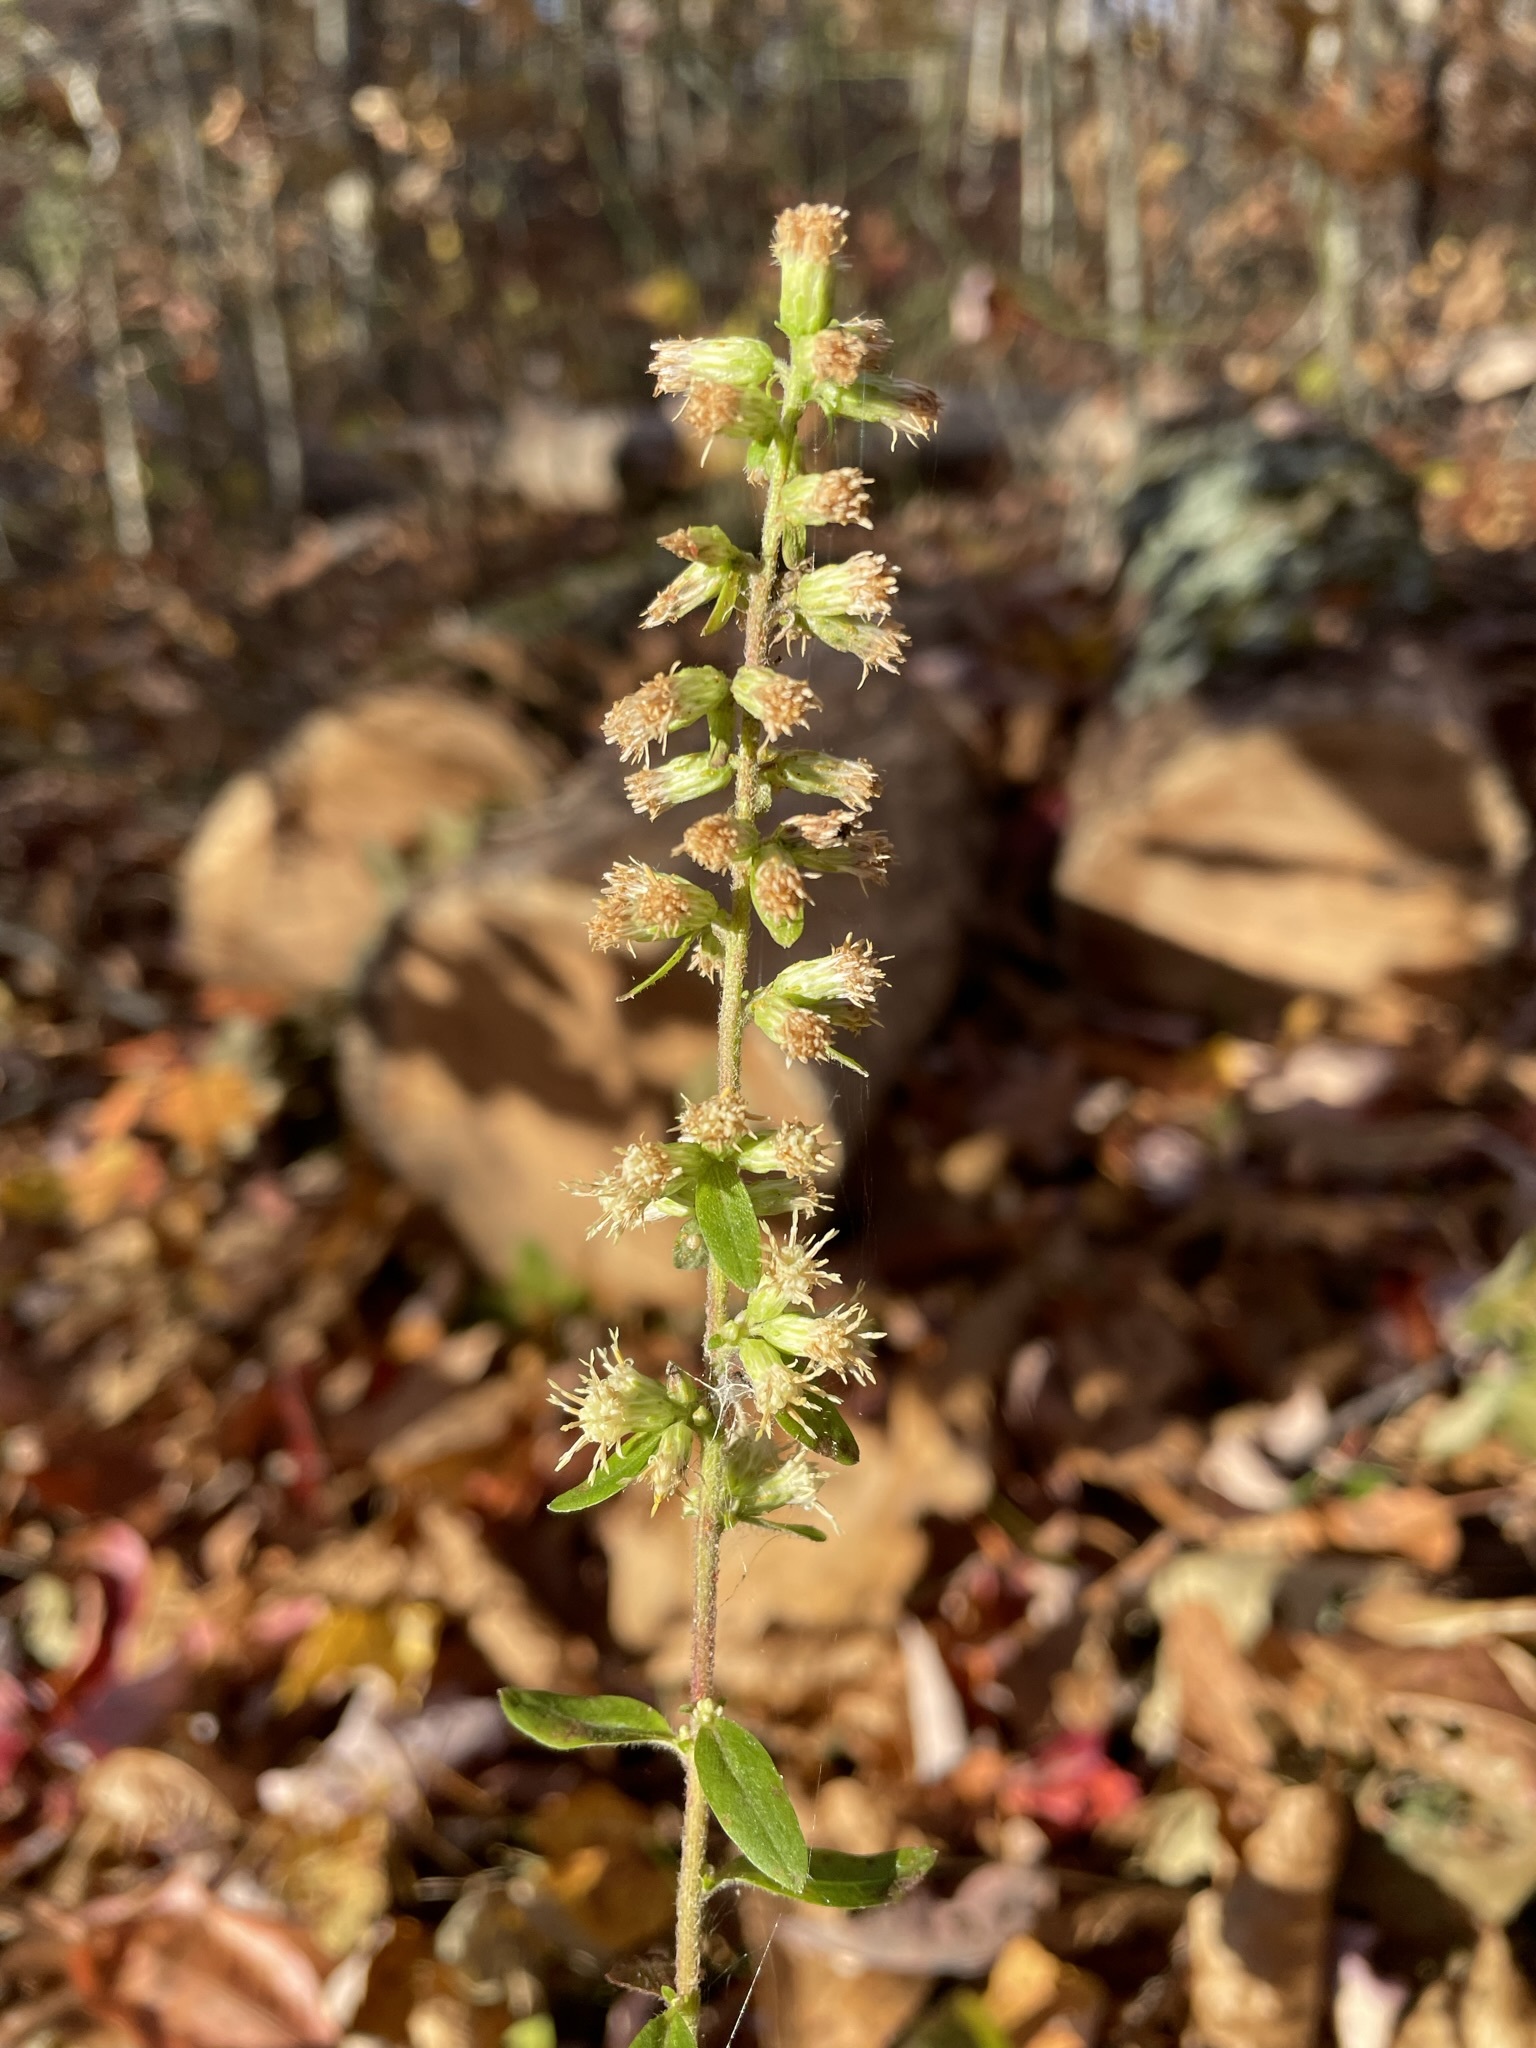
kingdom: Plantae
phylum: Tracheophyta
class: Magnoliopsida
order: Asterales
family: Asteraceae
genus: Solidago
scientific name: Solidago bicolor
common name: Silverrod
